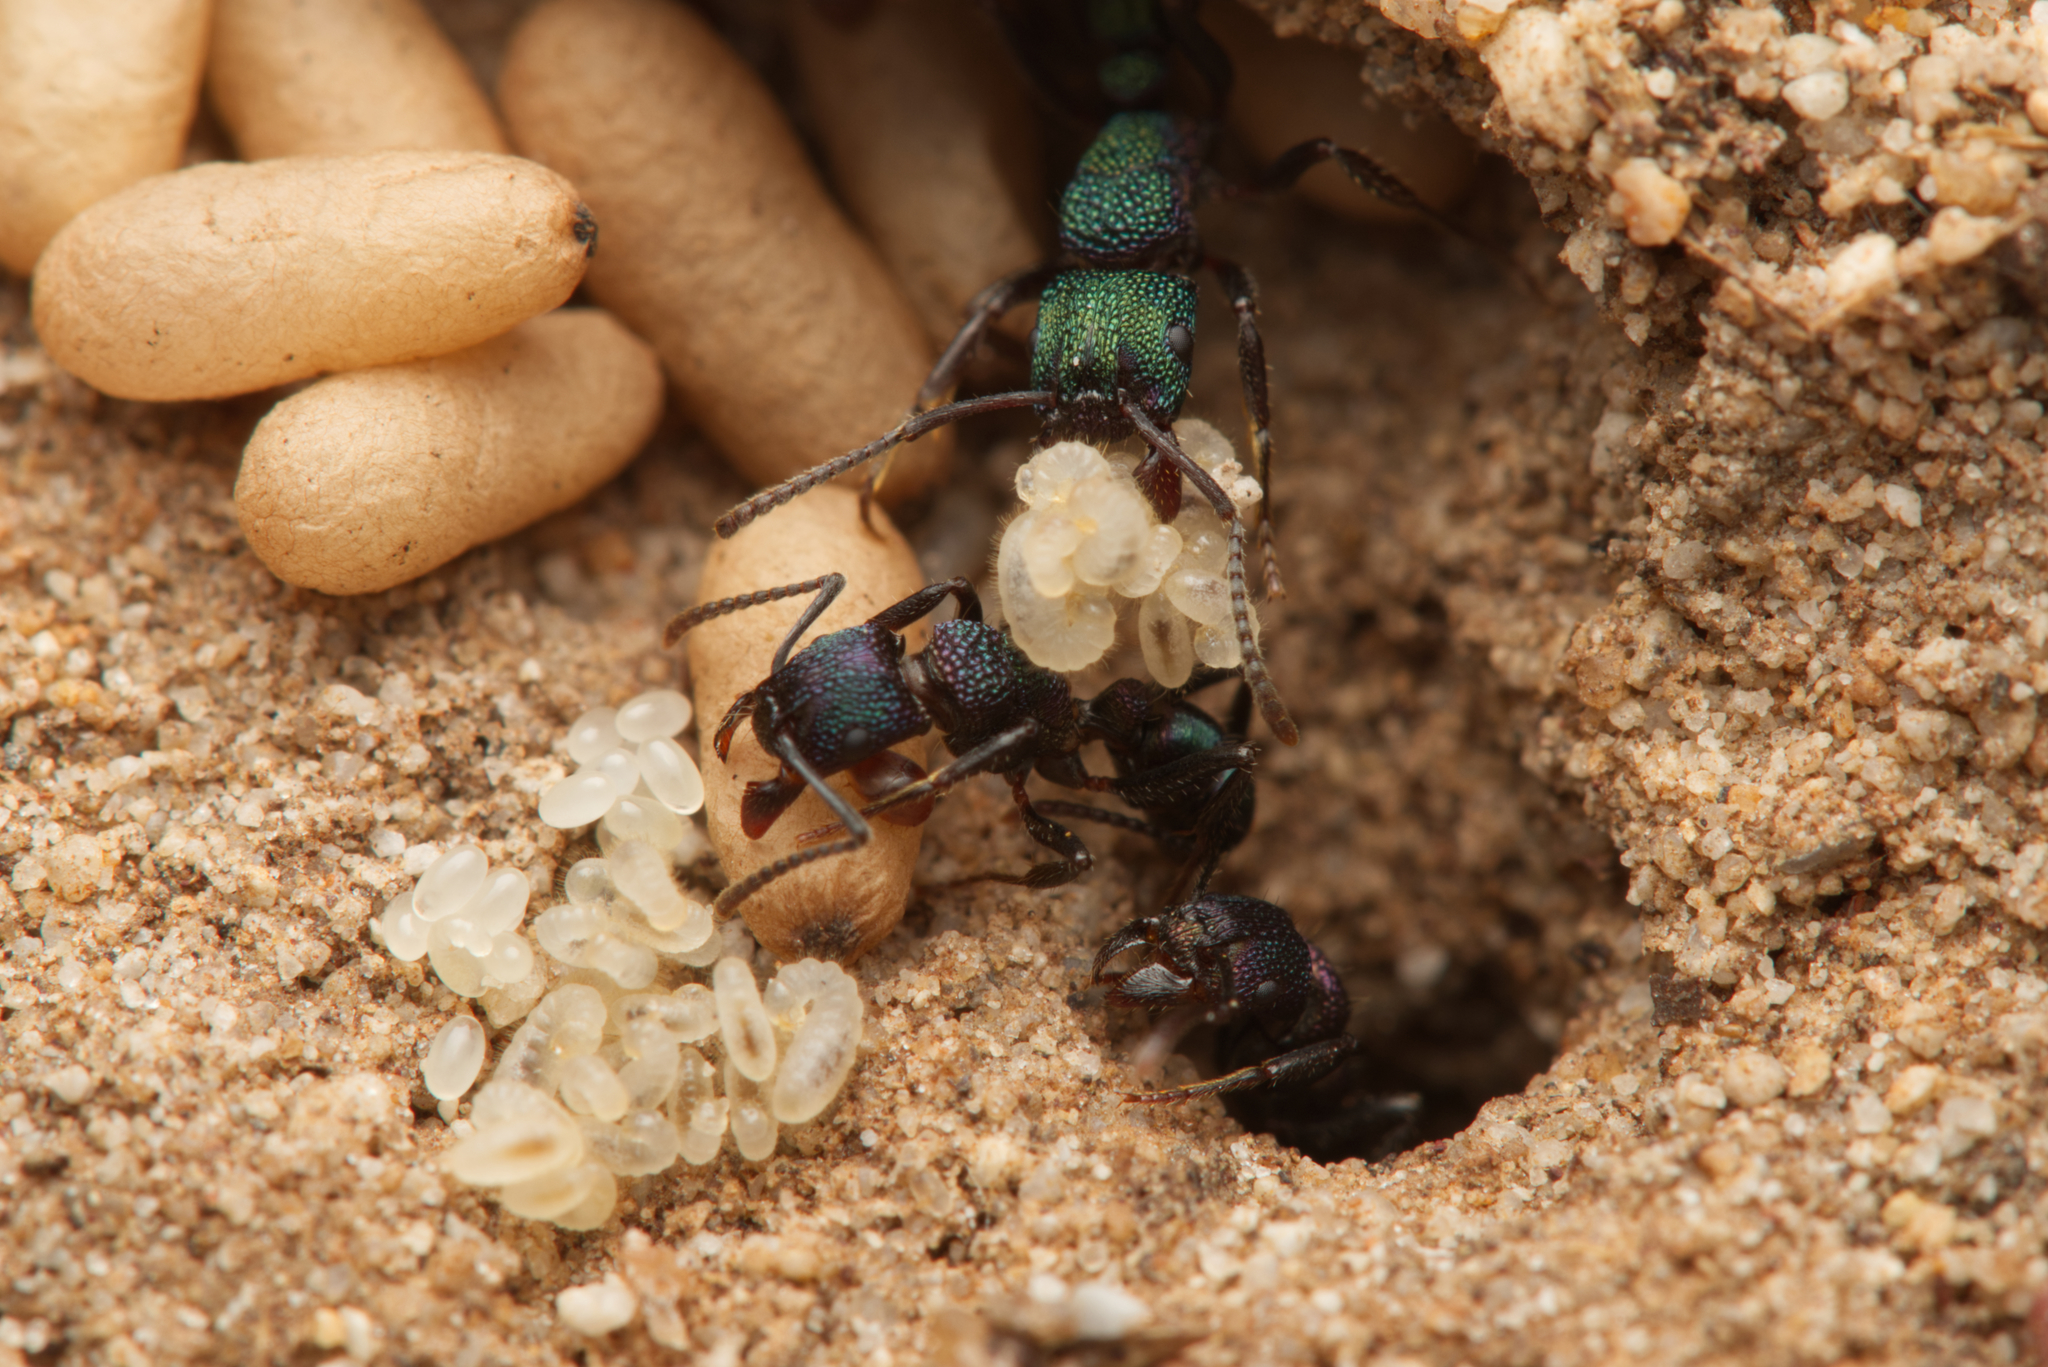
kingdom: Animalia
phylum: Arthropoda
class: Insecta
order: Hymenoptera
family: Formicidae
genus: Rhytidoponera
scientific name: Rhytidoponera metallica
